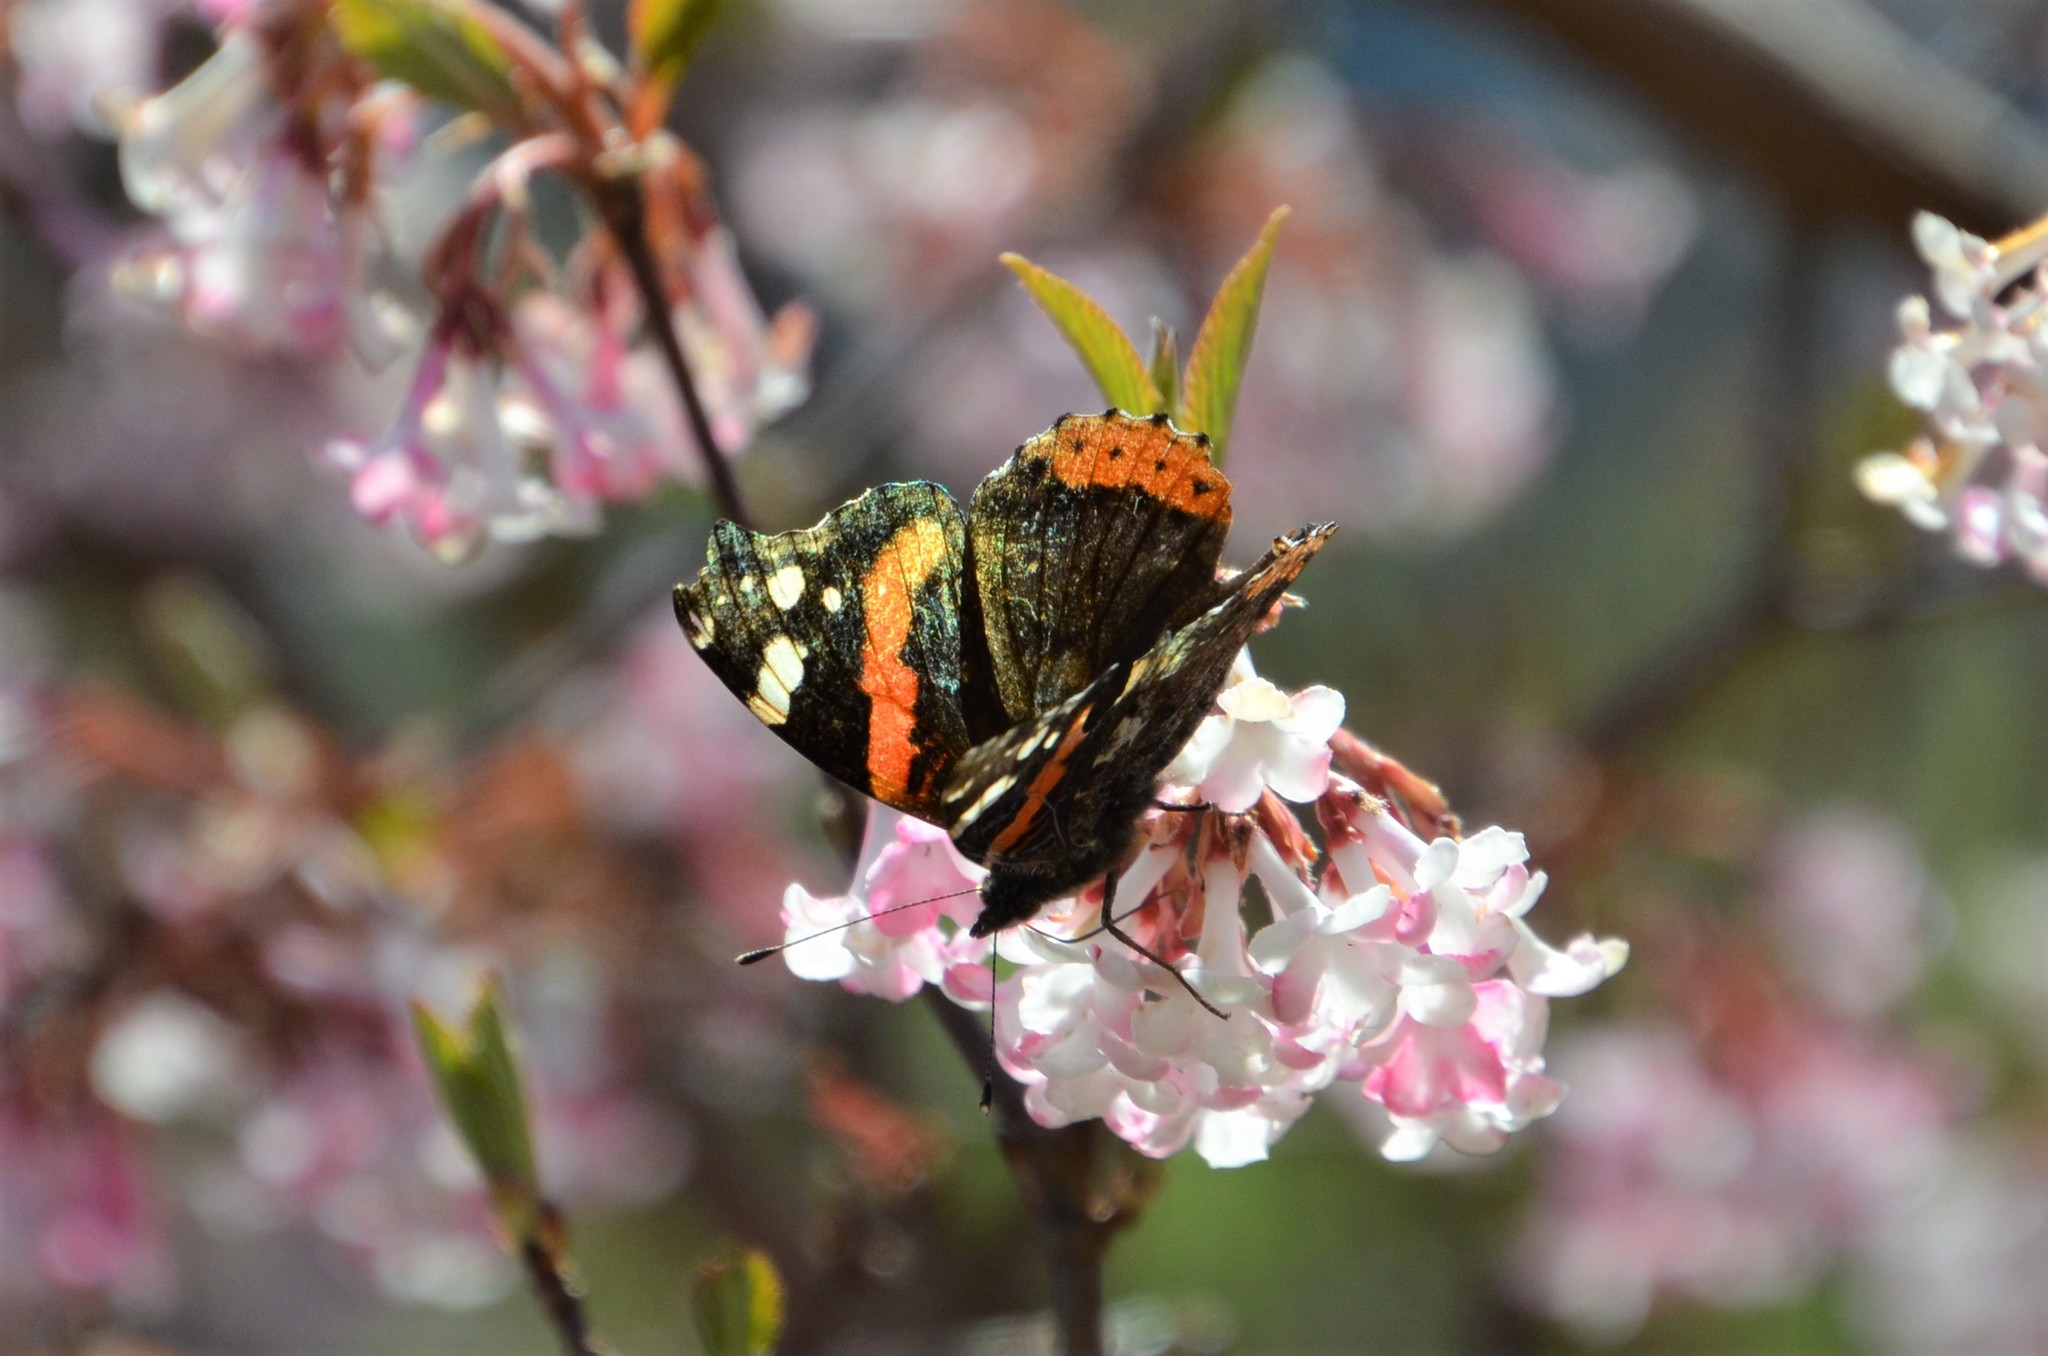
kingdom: Animalia
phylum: Arthropoda
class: Insecta
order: Lepidoptera
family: Nymphalidae
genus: Vanessa
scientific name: Vanessa atalanta
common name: Red admiral
